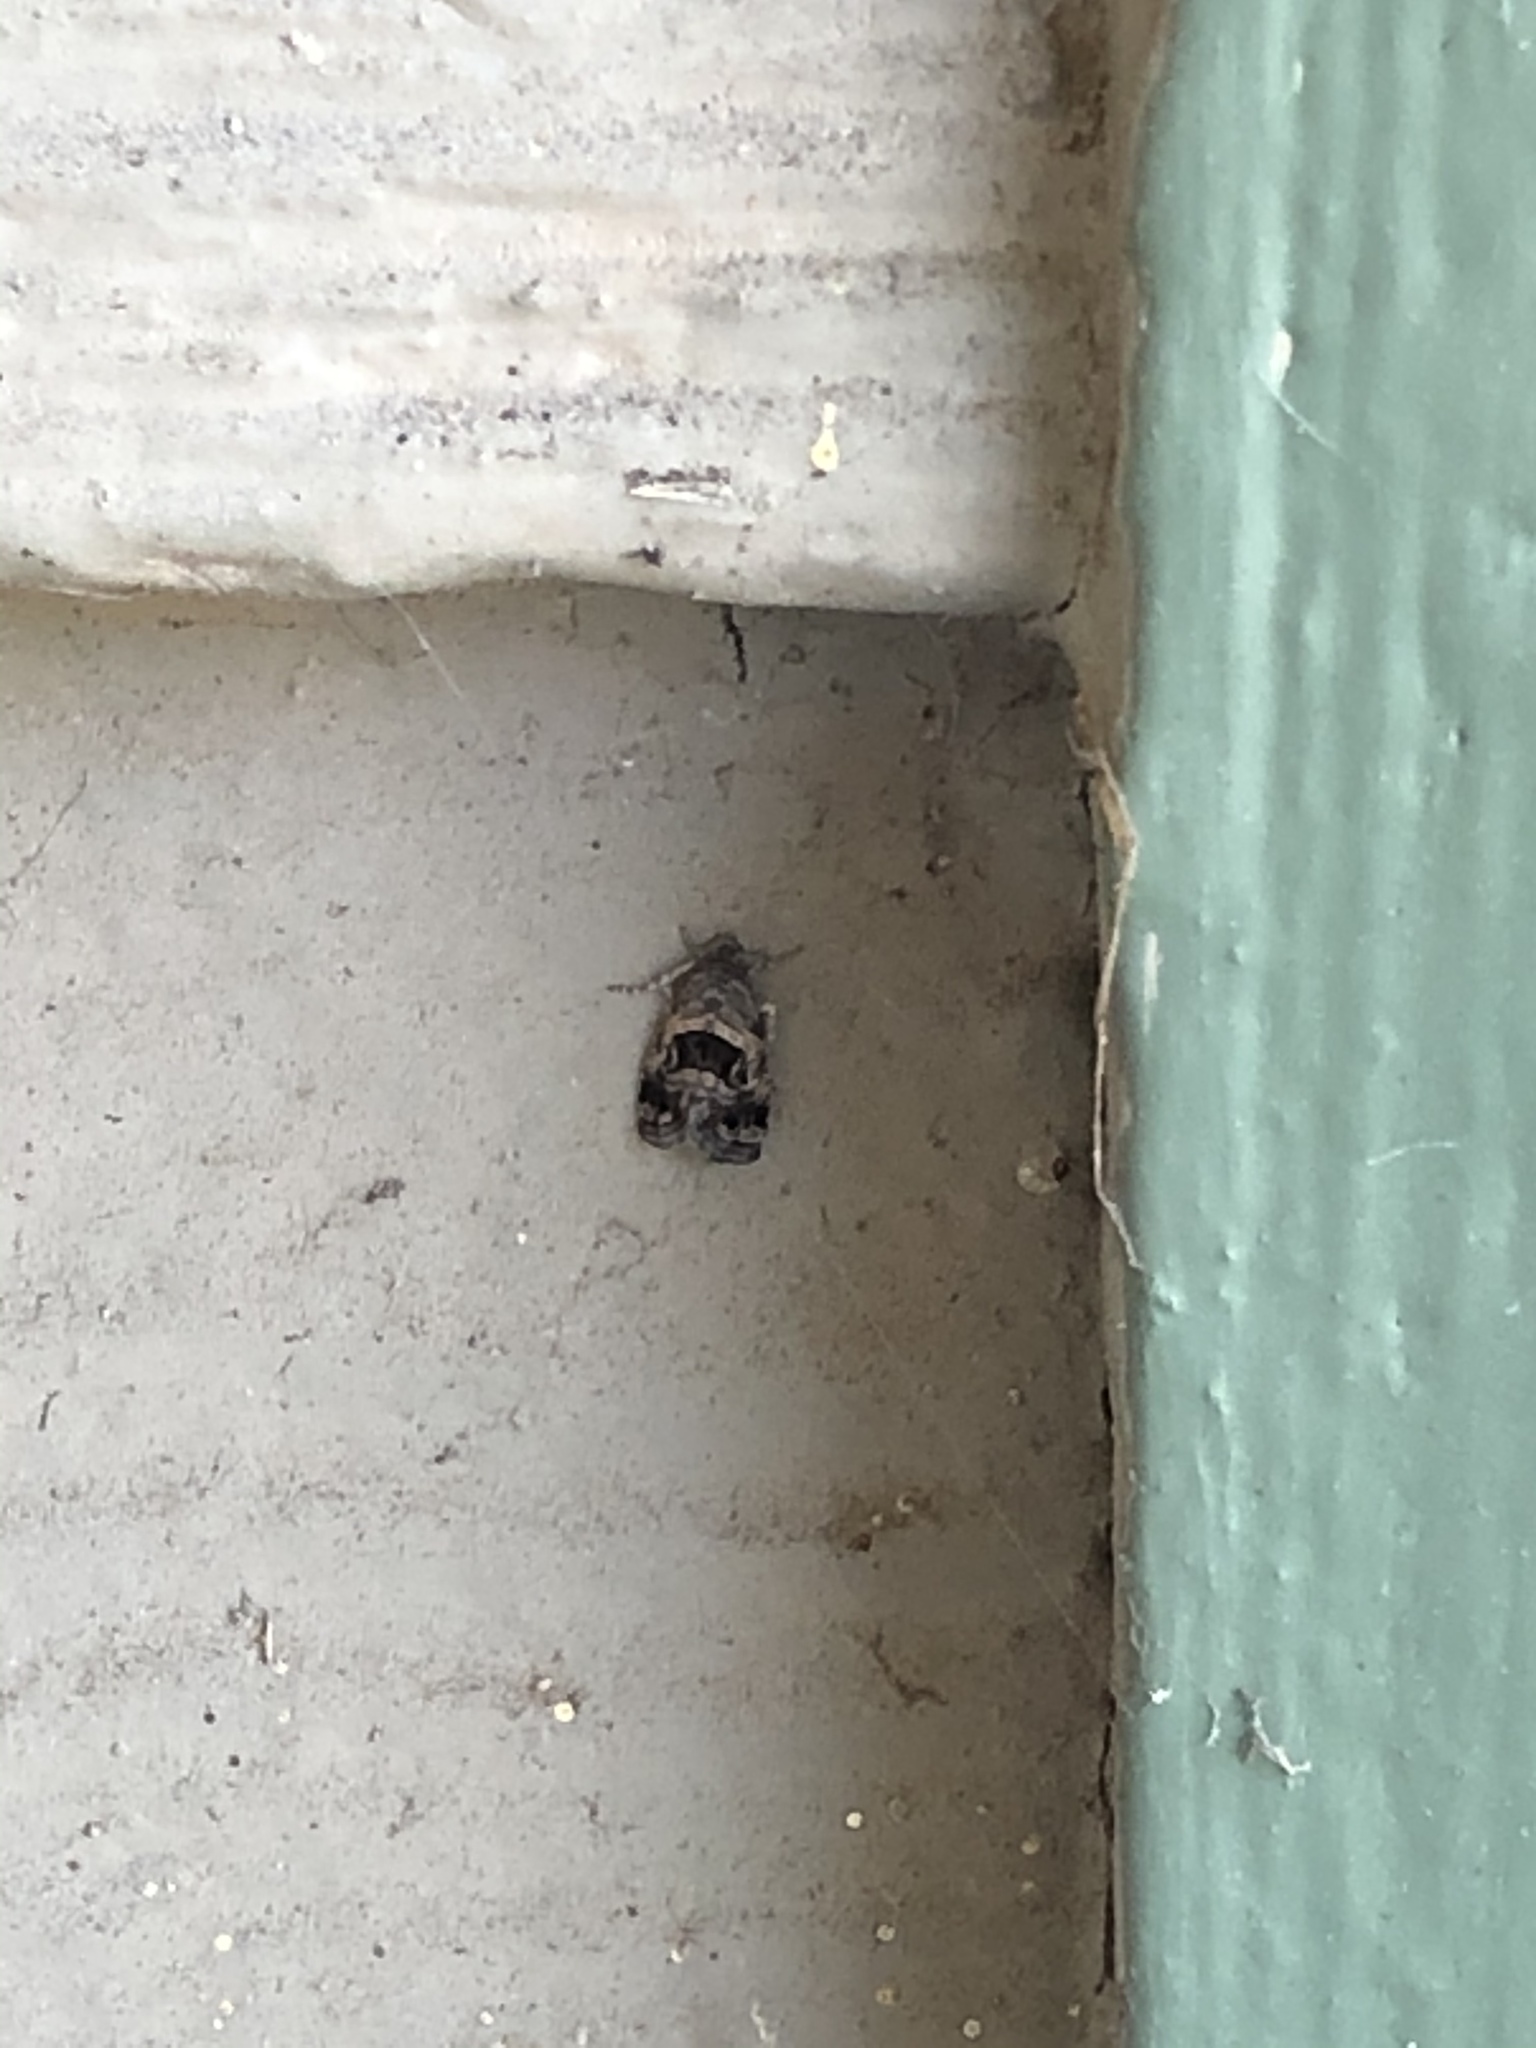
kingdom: Animalia
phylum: Arthropoda
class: Insecta
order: Lepidoptera
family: Noctuidae
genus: Tripudia
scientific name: Tripudia quadrifera
